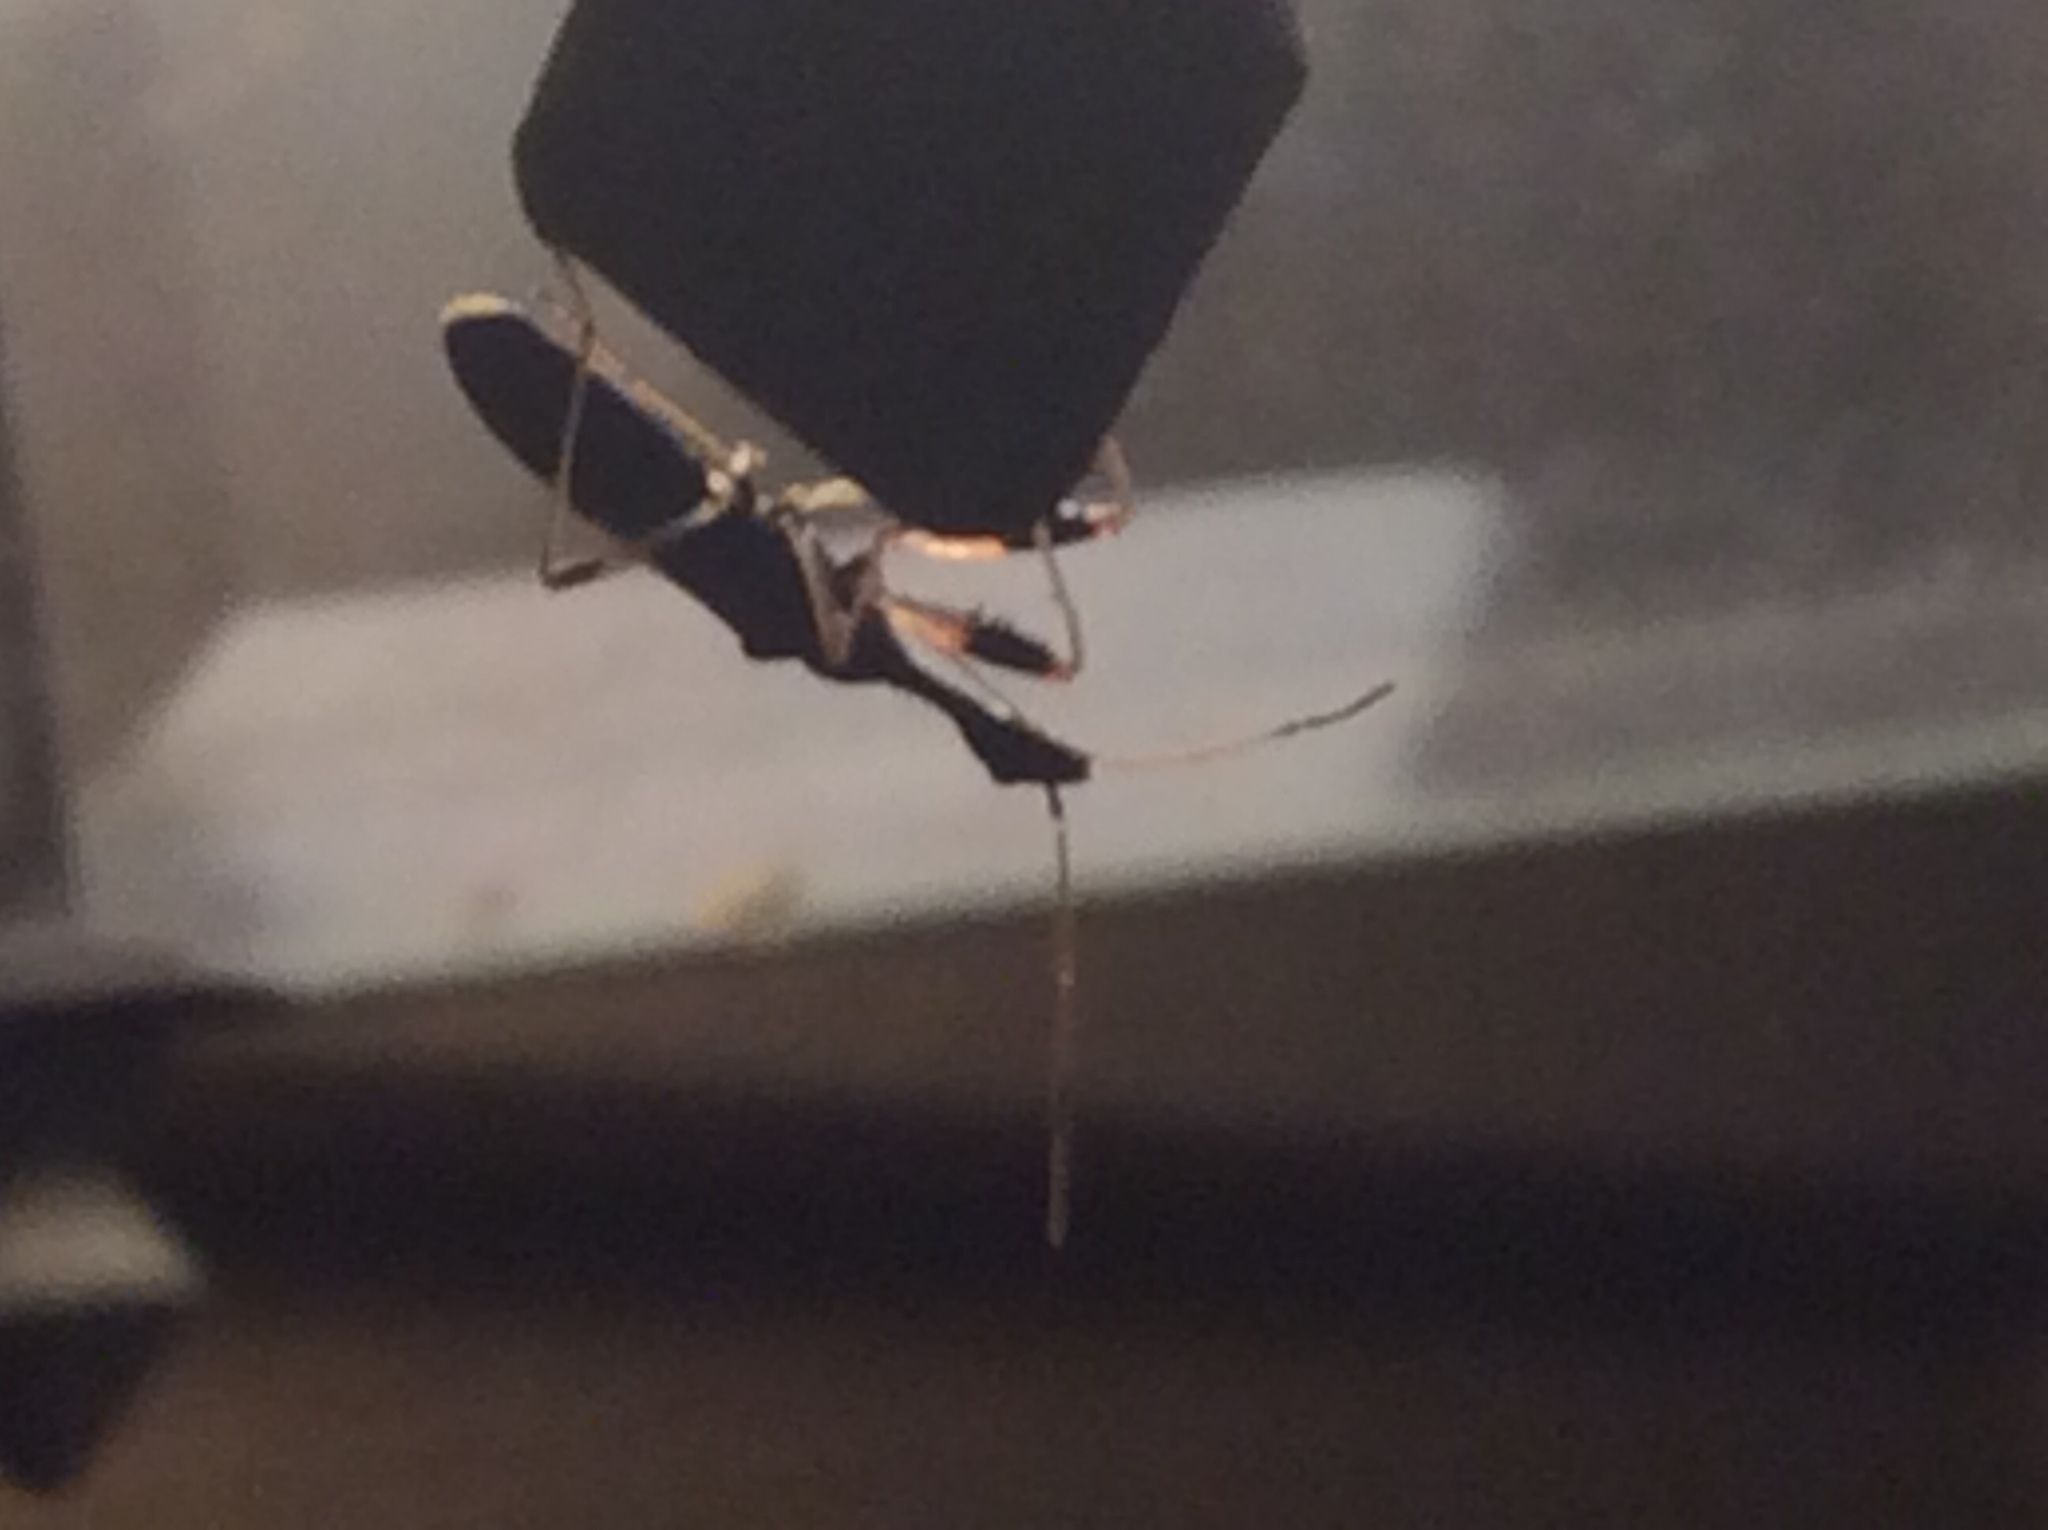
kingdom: Animalia
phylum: Arthropoda
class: Insecta
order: Hemiptera
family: Rhyparochromidae
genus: Myodocha
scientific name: Myodocha serripes
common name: Long-necked seed bug
